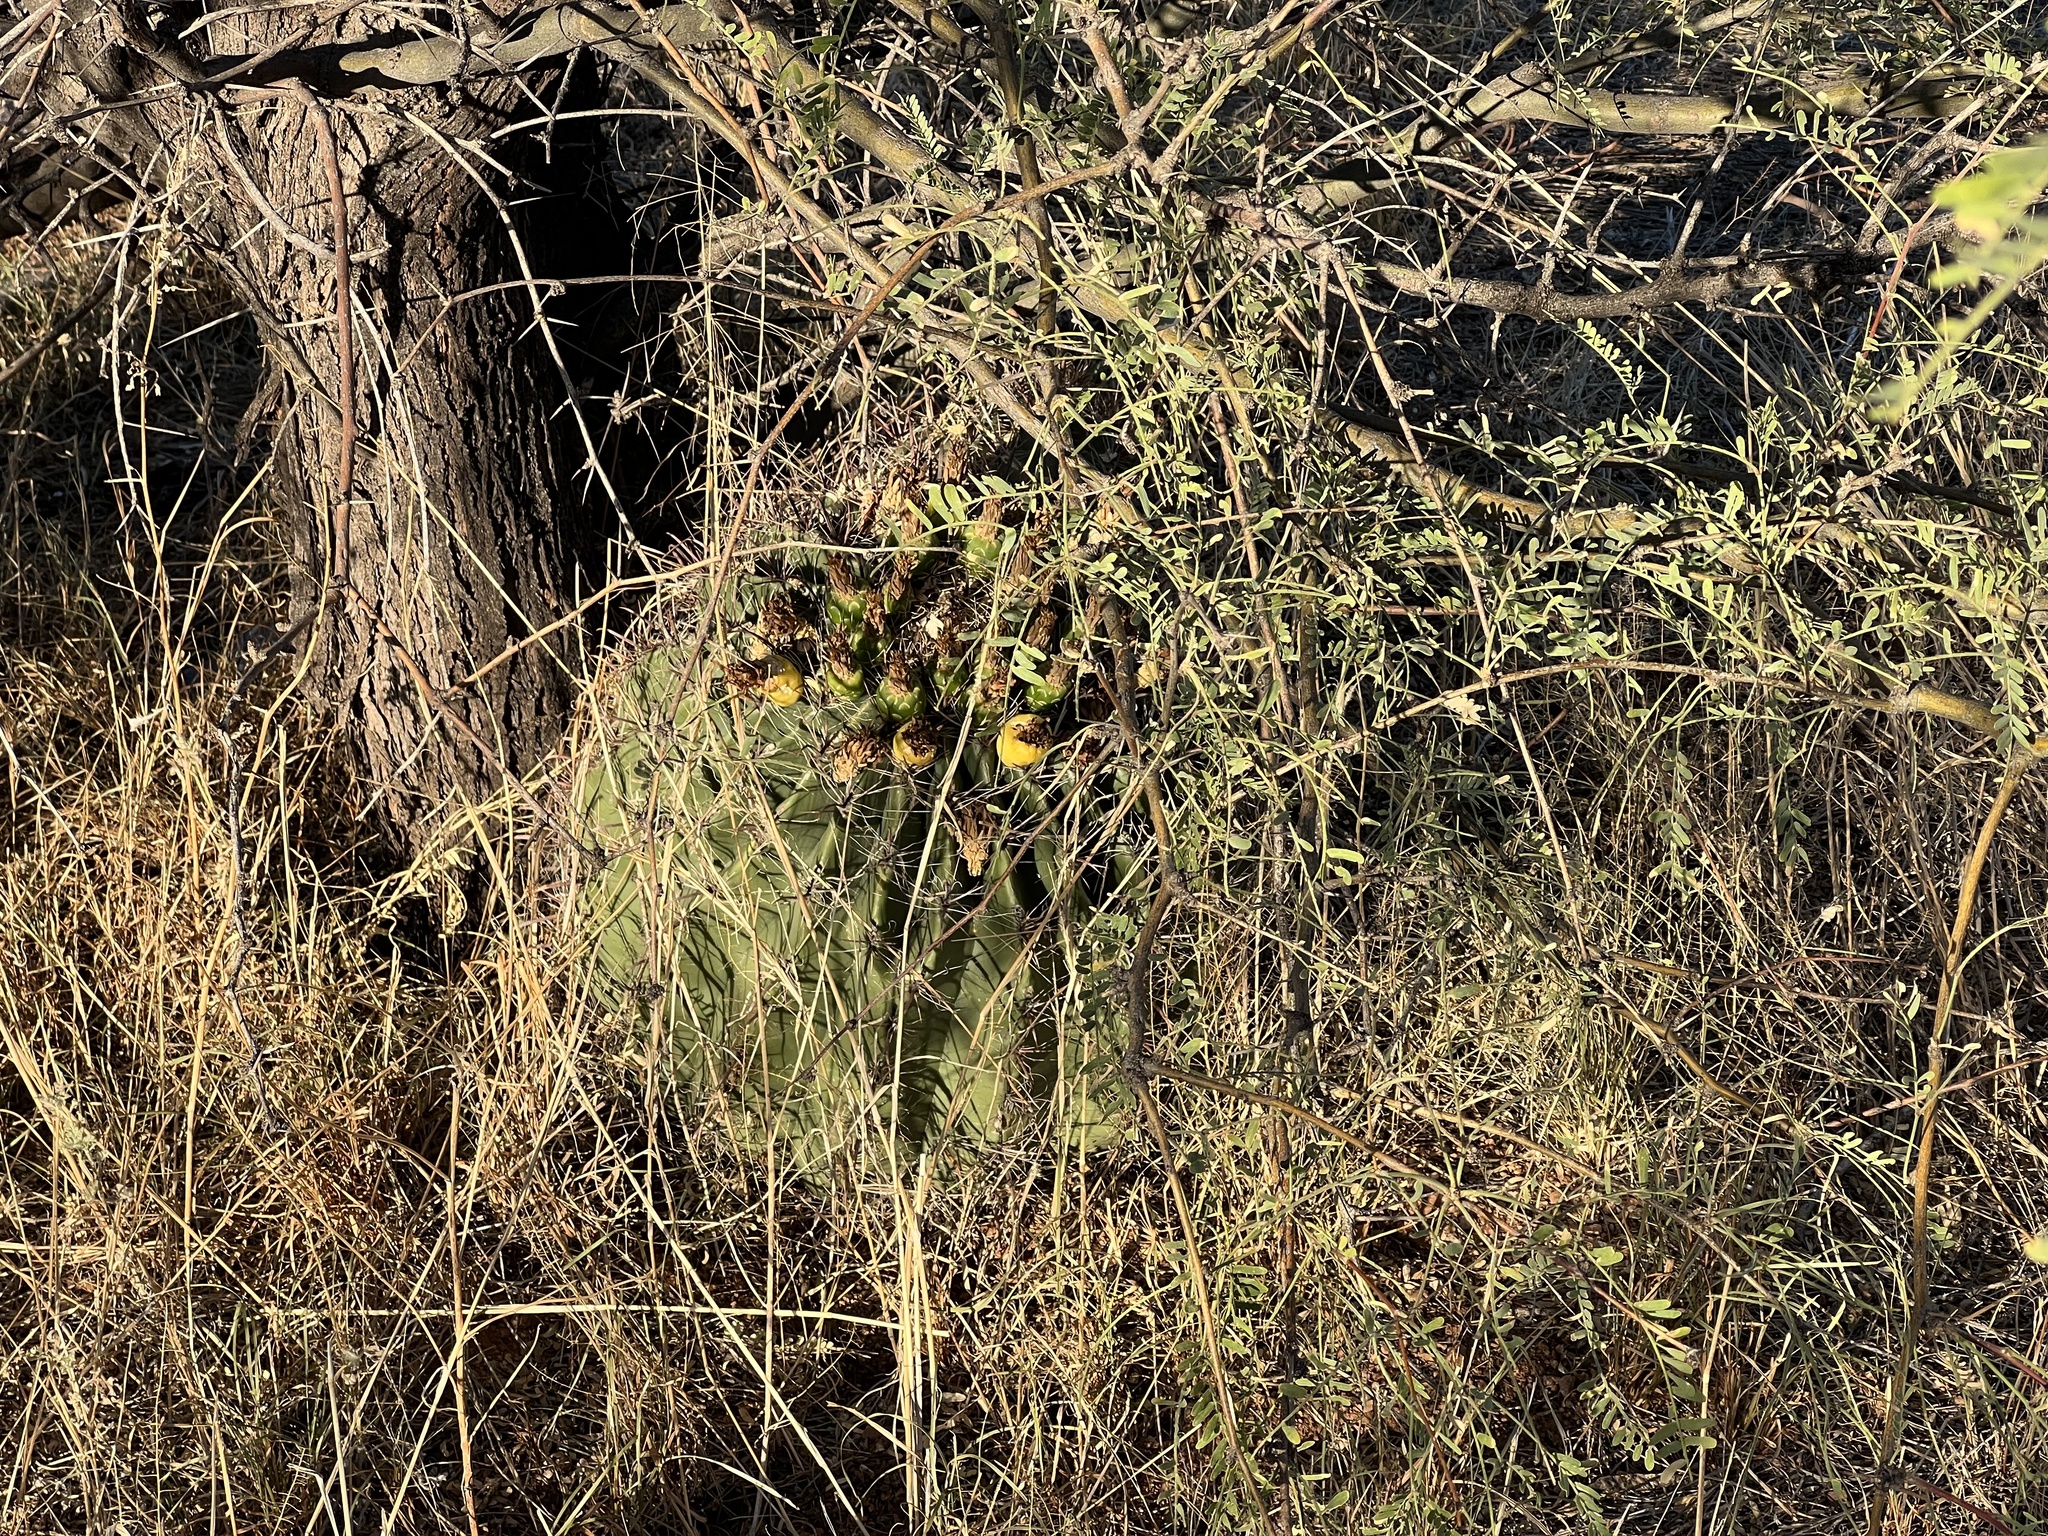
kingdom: Plantae
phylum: Tracheophyta
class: Magnoliopsida
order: Caryophyllales
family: Cactaceae
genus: Ferocactus
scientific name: Ferocactus wislizeni
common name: Candy barrel cactus
